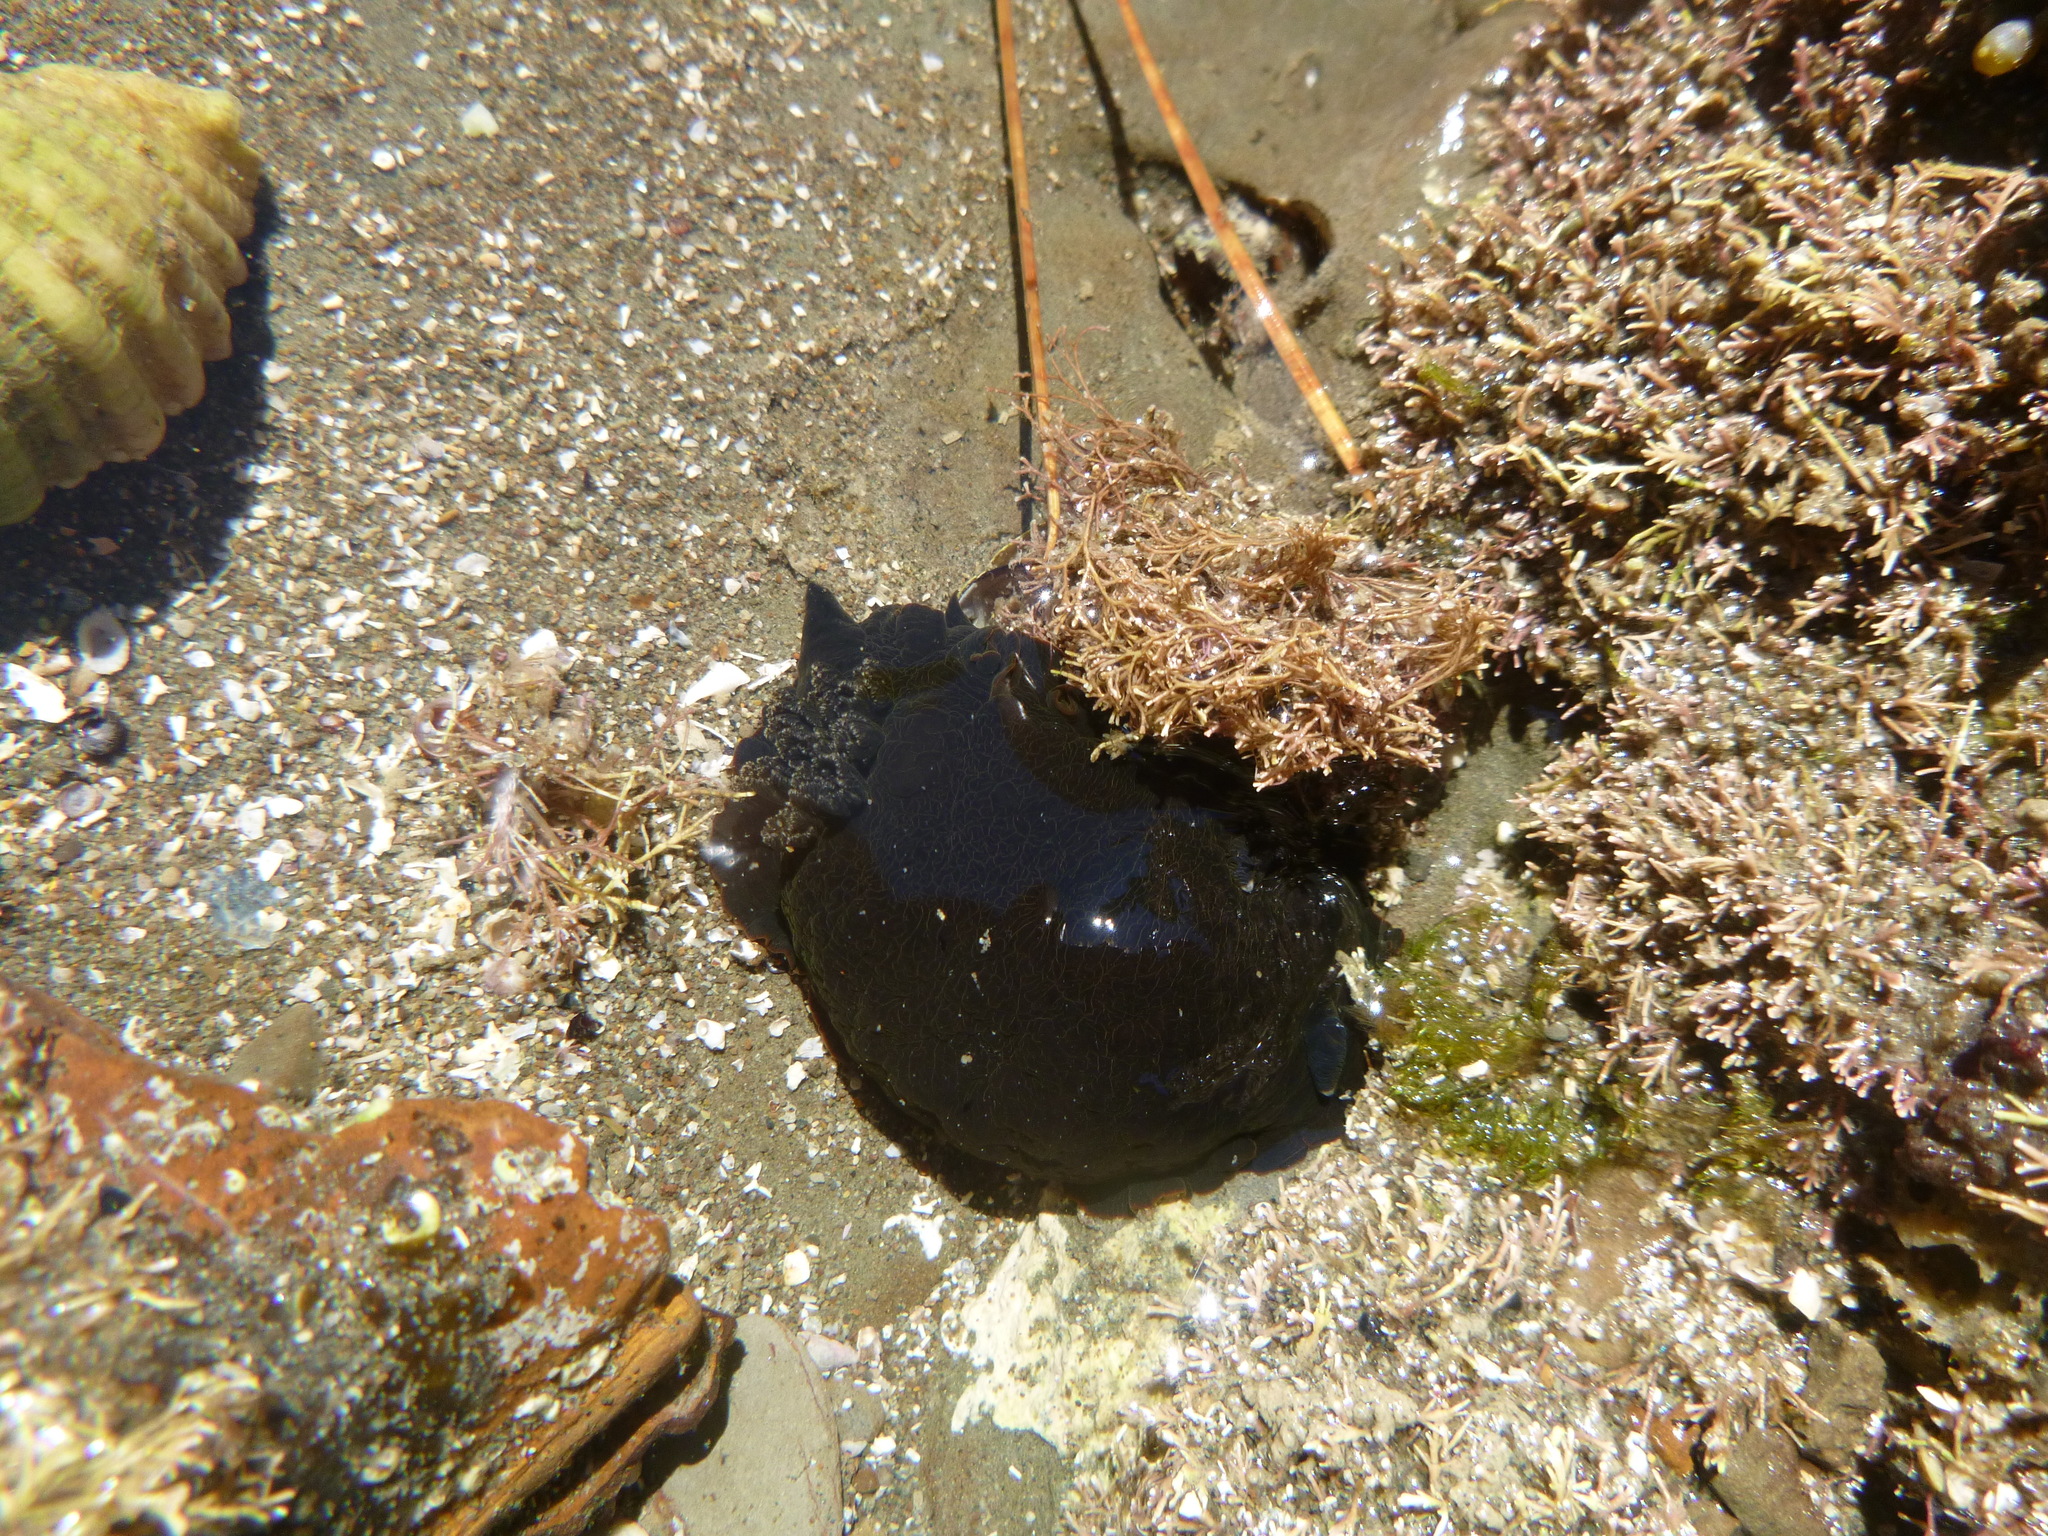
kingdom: Animalia
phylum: Mollusca
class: Gastropoda
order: Nudibranchia
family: Dendrodorididae
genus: Dendrodoris
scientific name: Dendrodoris nigra
